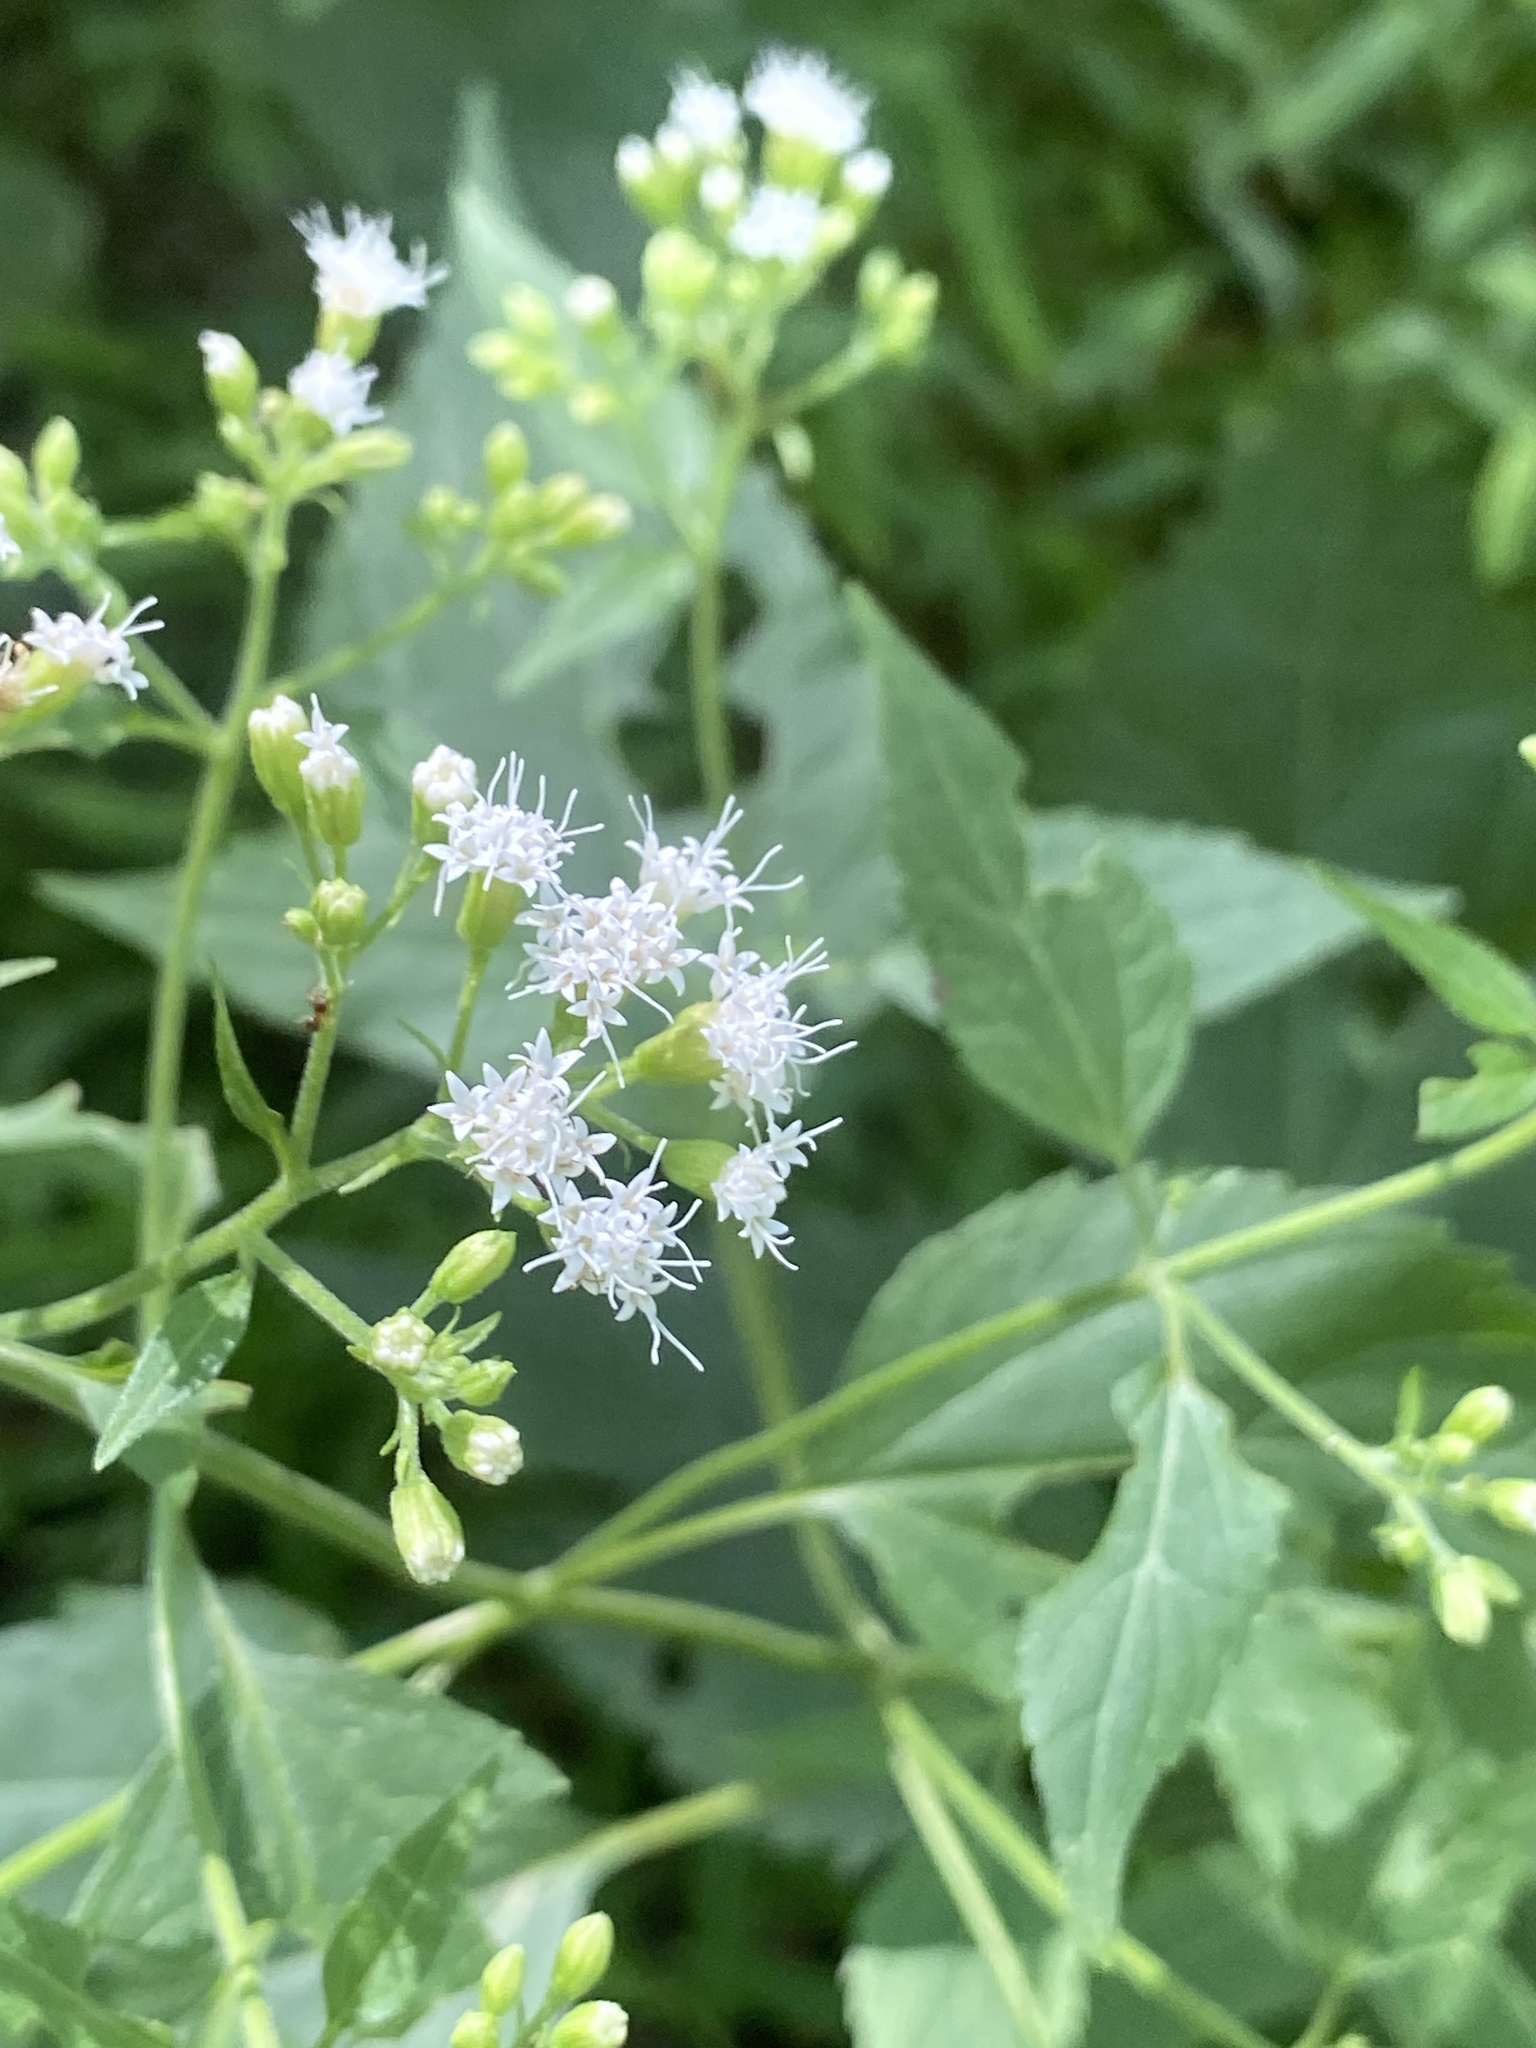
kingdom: Plantae
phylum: Tracheophyta
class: Magnoliopsida
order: Asterales
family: Asteraceae
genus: Ageratina
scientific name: Ageratina altissima
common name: White snakeroot
